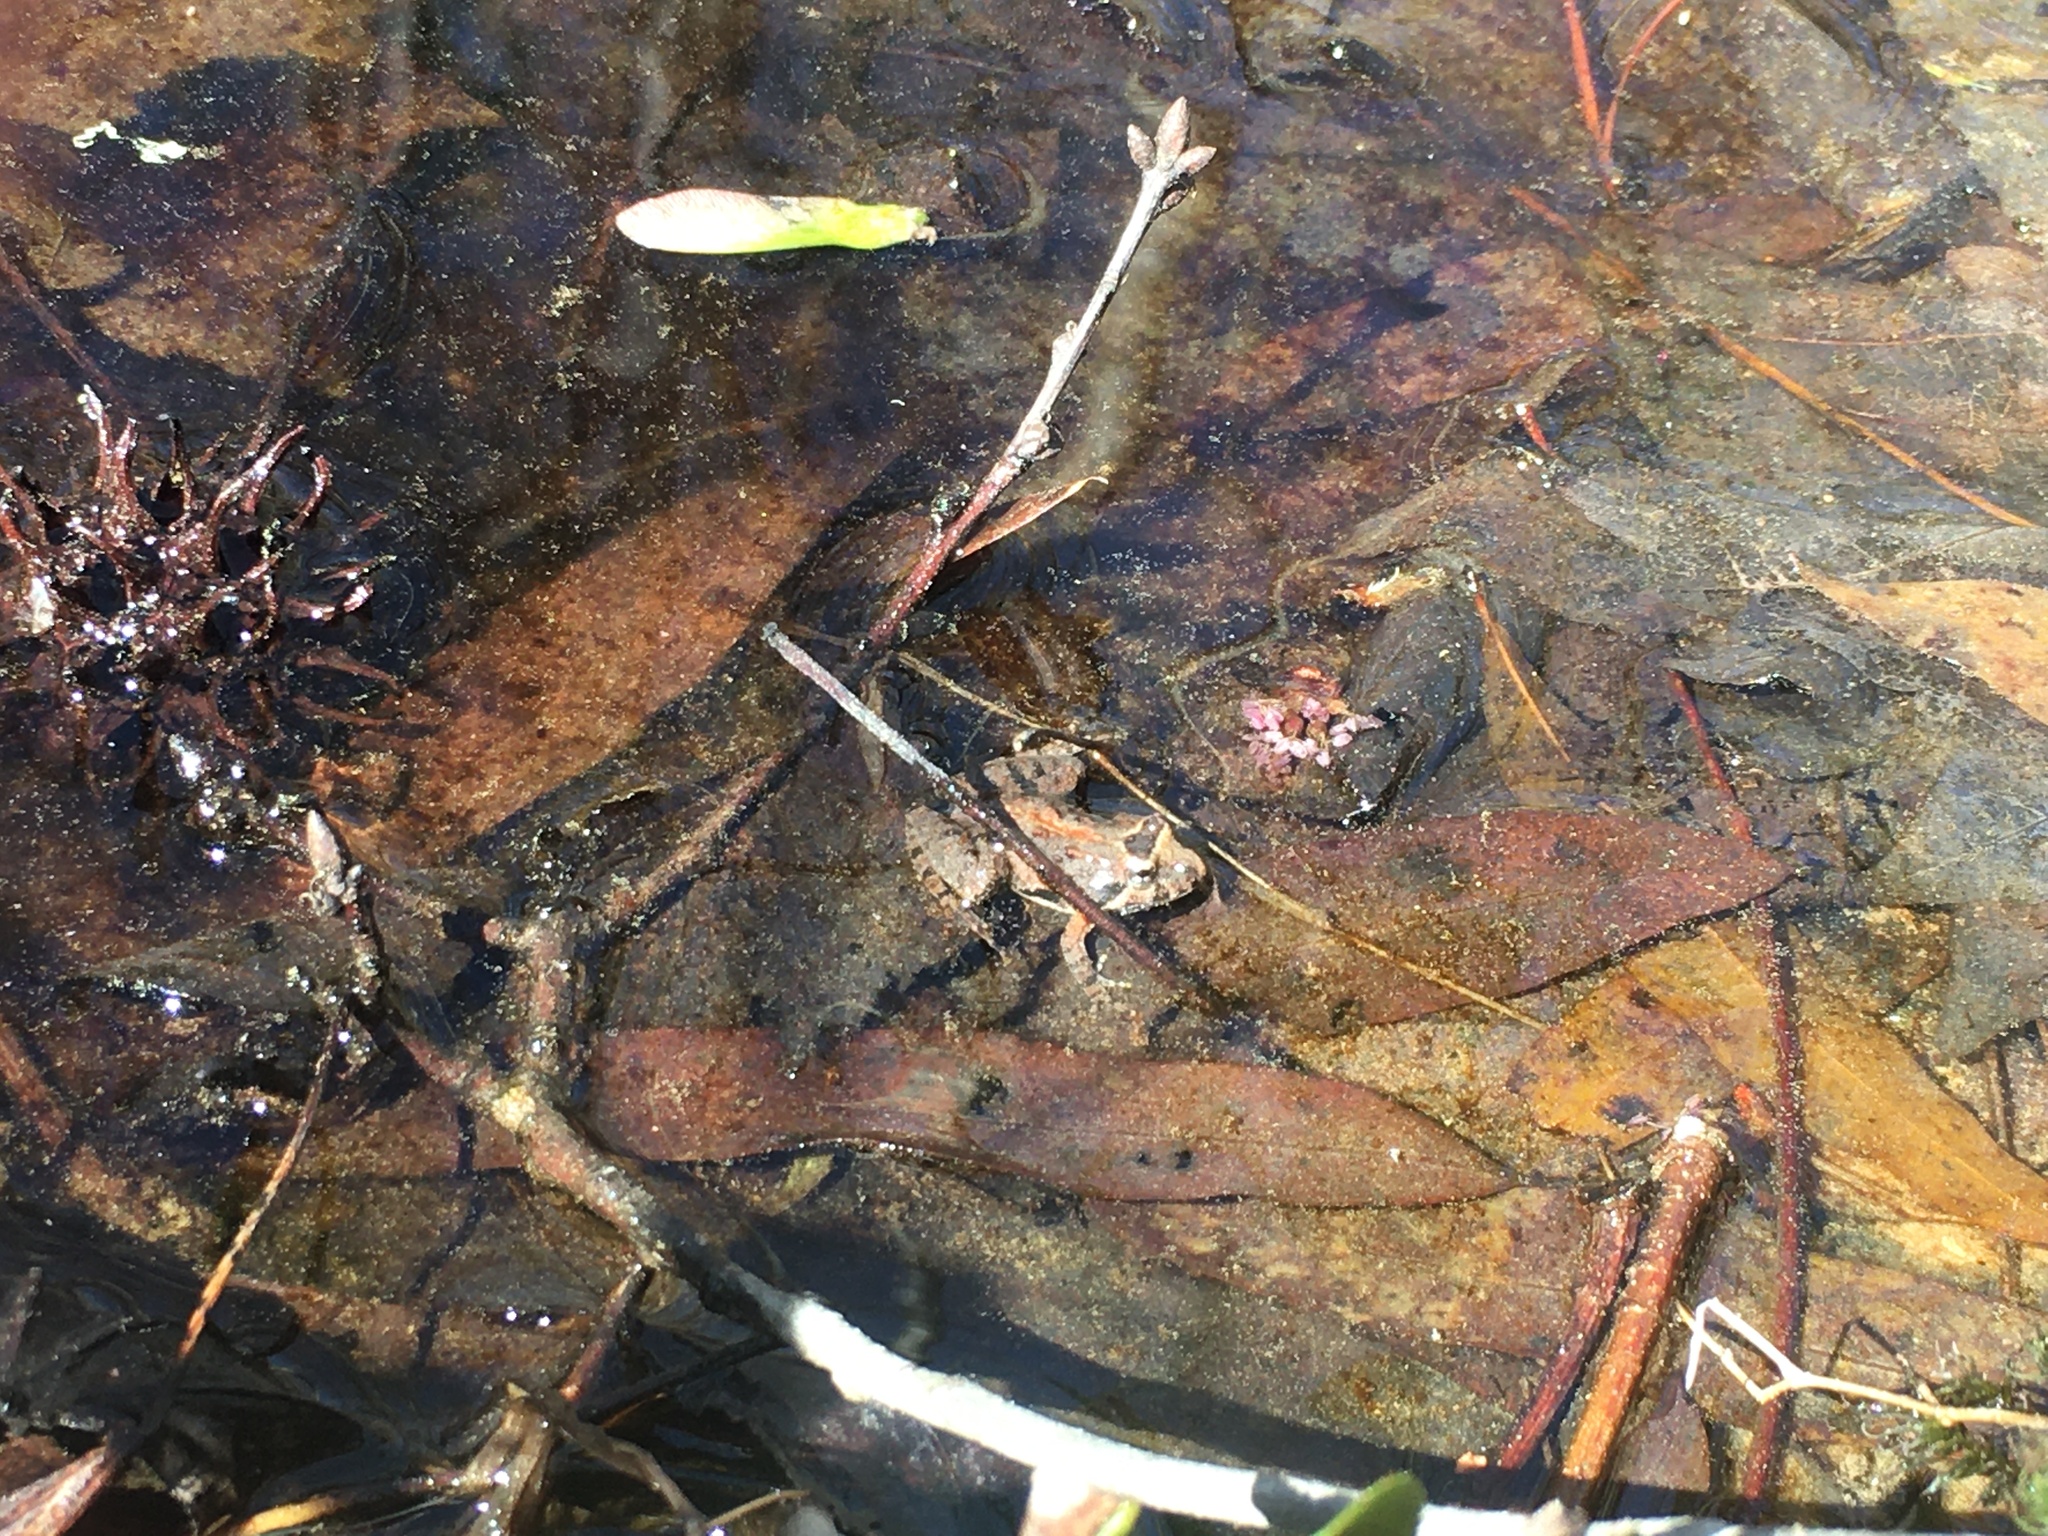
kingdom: Animalia
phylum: Chordata
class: Amphibia
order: Anura
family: Hylidae
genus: Acris
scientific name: Acris crepitans
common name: Northern cricket frog
